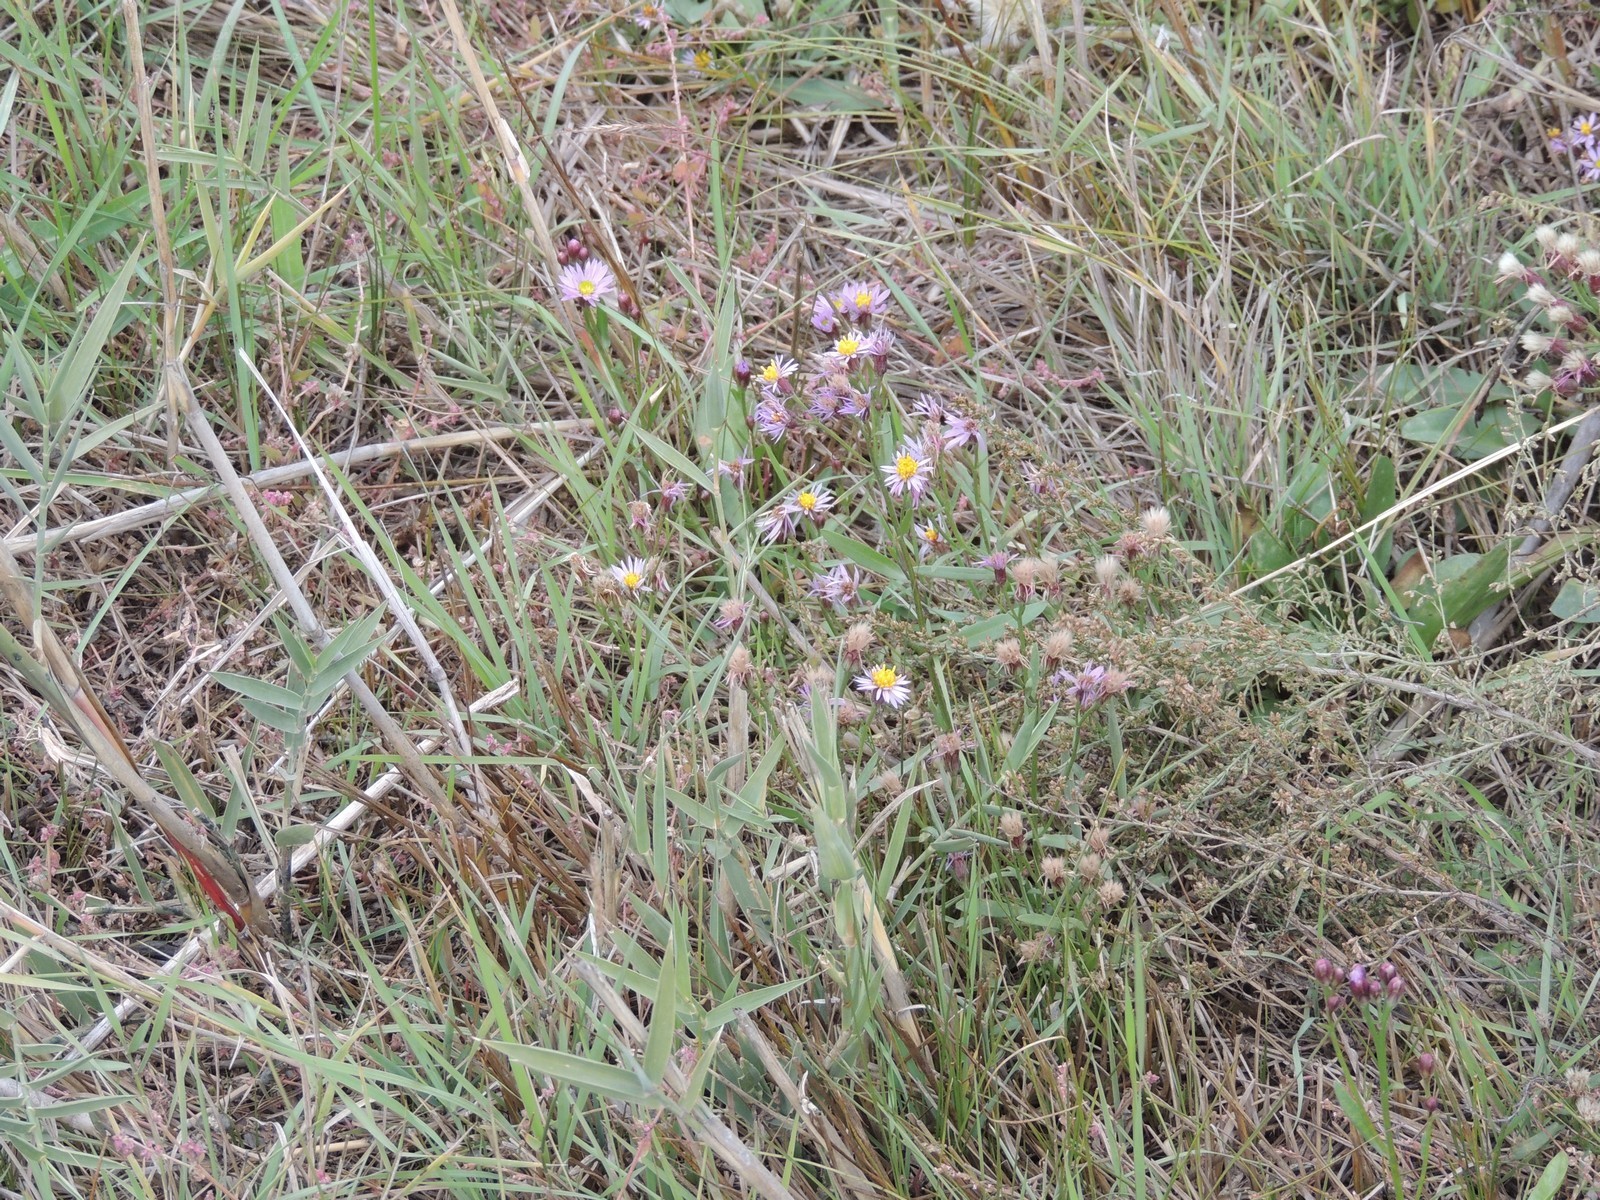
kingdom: Plantae
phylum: Tracheophyta
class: Magnoliopsida
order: Asterales
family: Asteraceae
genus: Tripolium
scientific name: Tripolium pannonicum
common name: Sea aster
